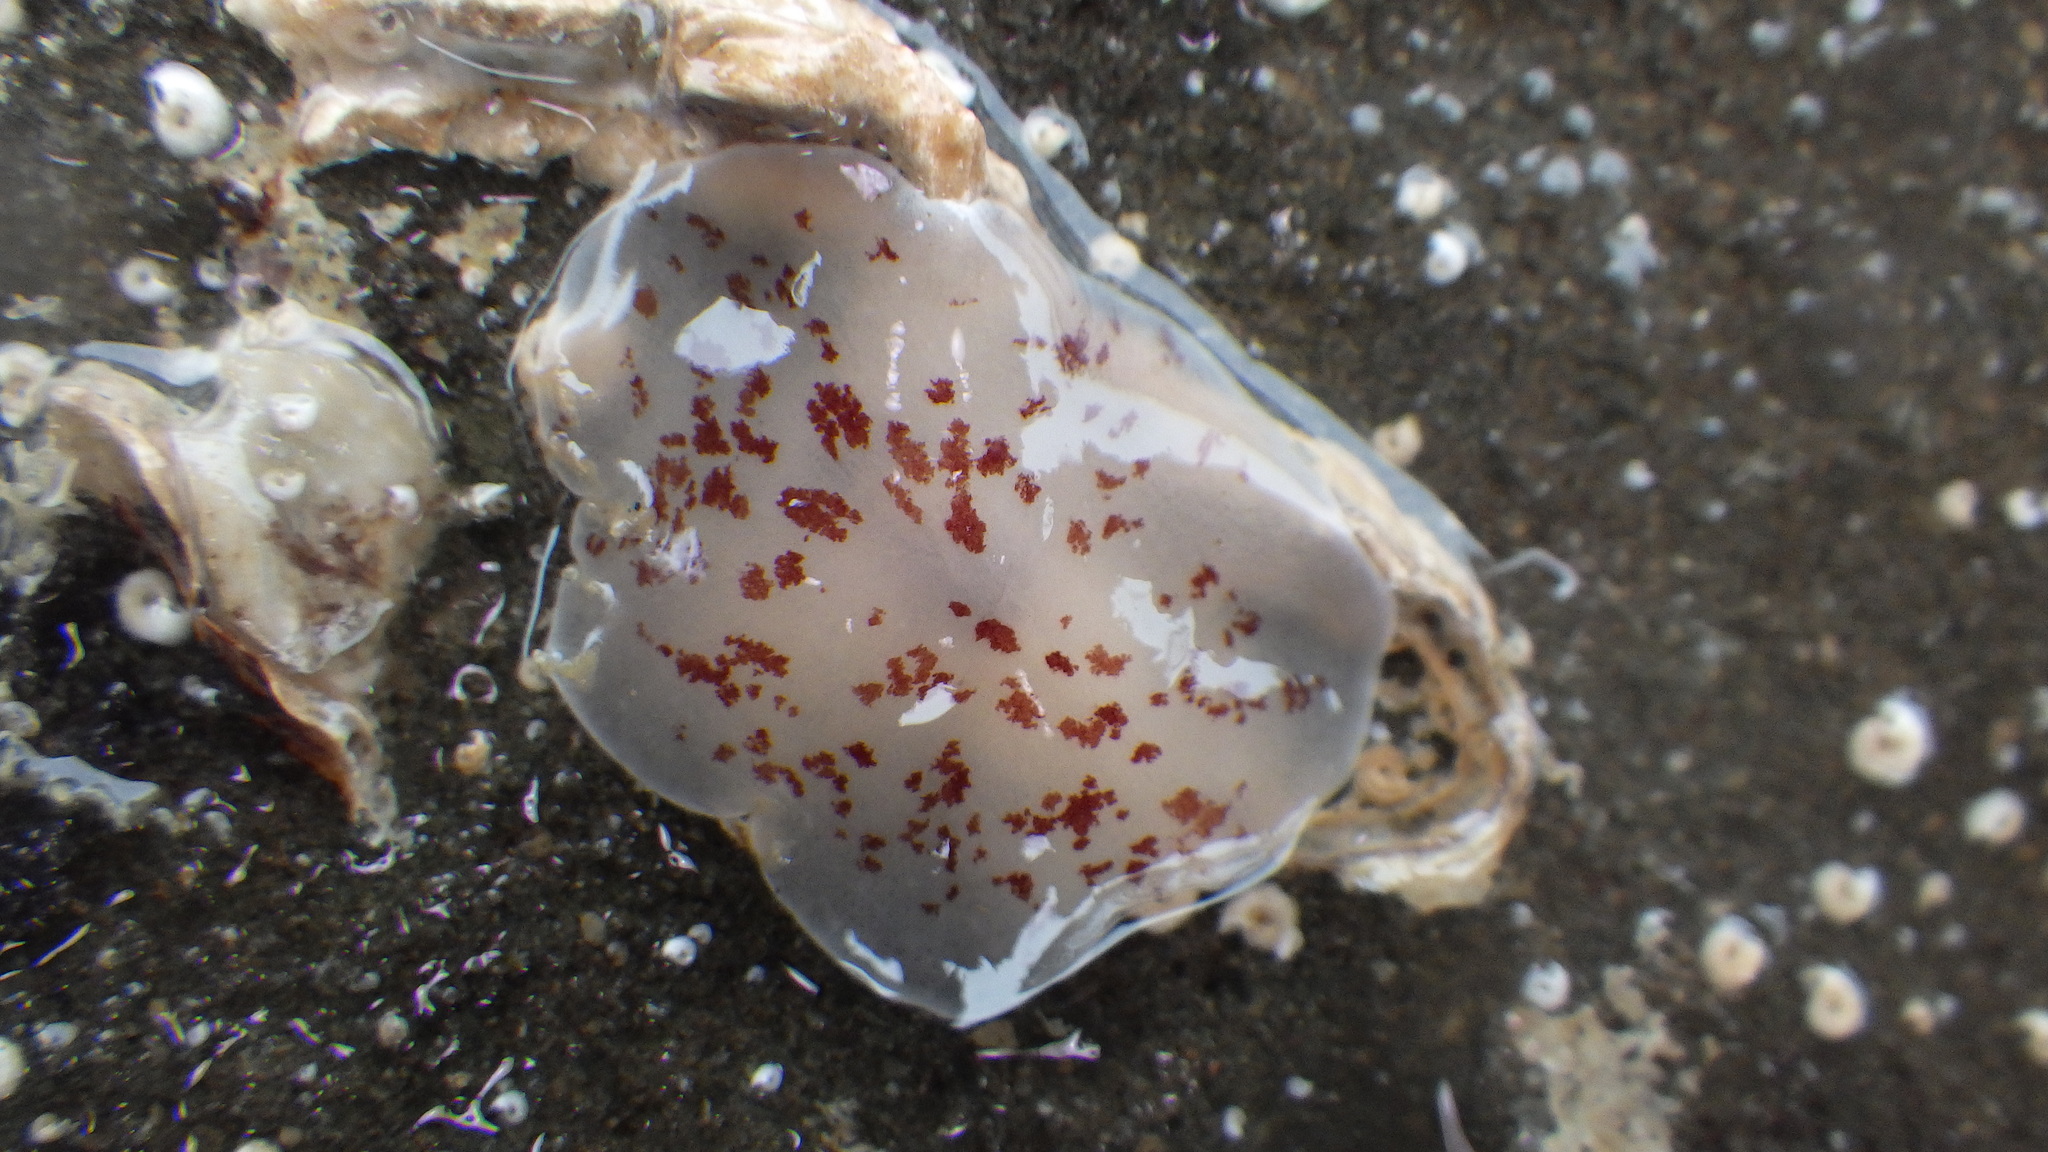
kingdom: Animalia
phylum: Mollusca
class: Gastropoda
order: Pleurobranchida
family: Pleurobranchidae
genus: Berthella
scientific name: Berthella ornata
